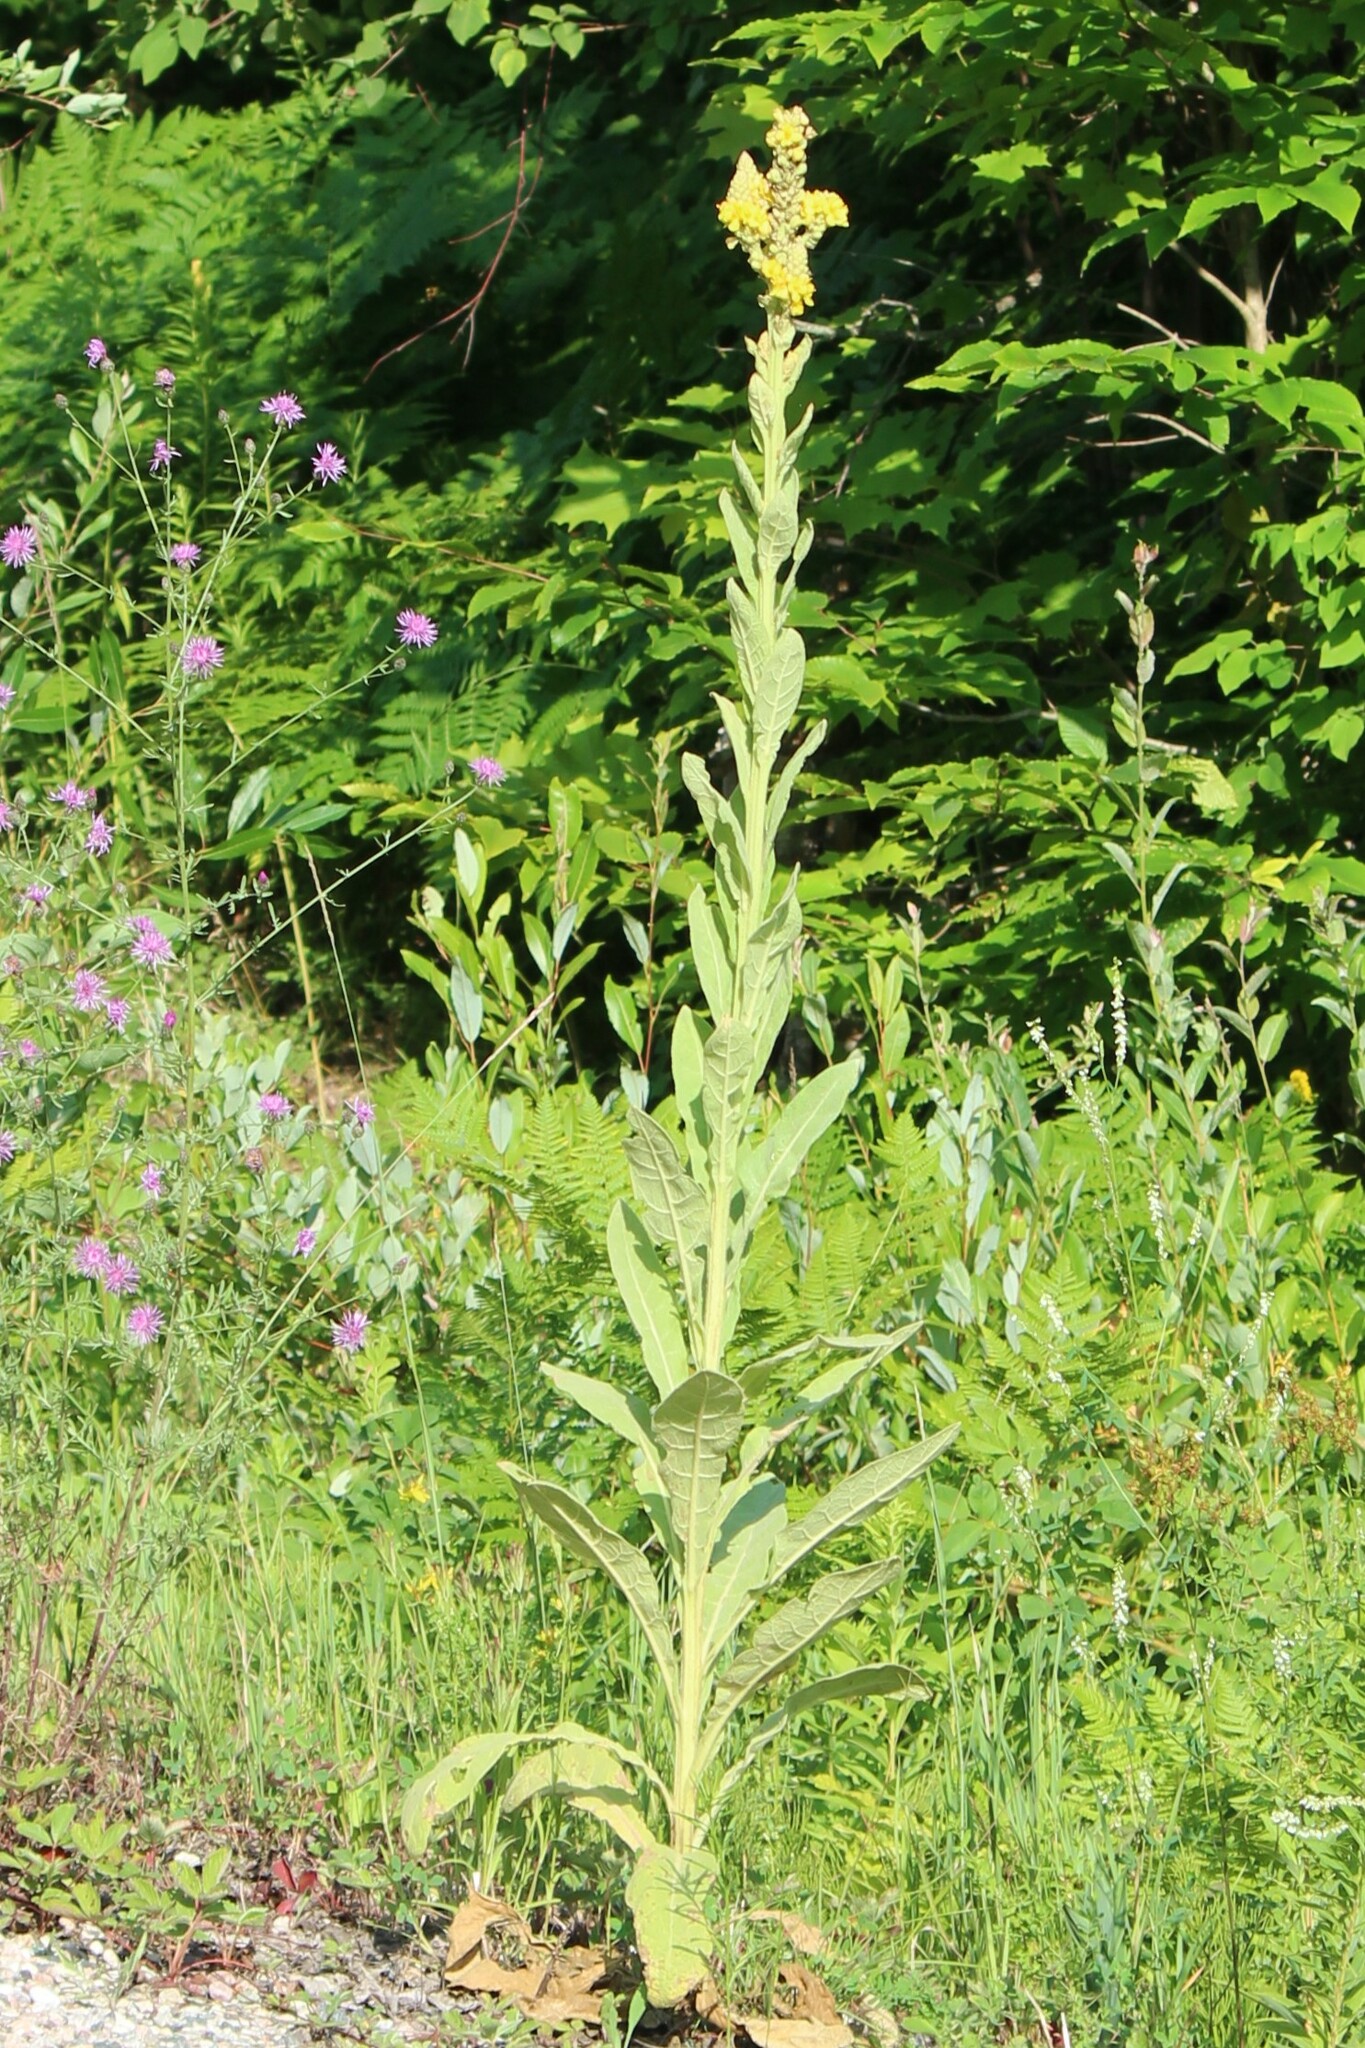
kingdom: Plantae
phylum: Tracheophyta
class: Magnoliopsida
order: Lamiales
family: Scrophulariaceae
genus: Verbascum
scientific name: Verbascum thapsus
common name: Common mullein
